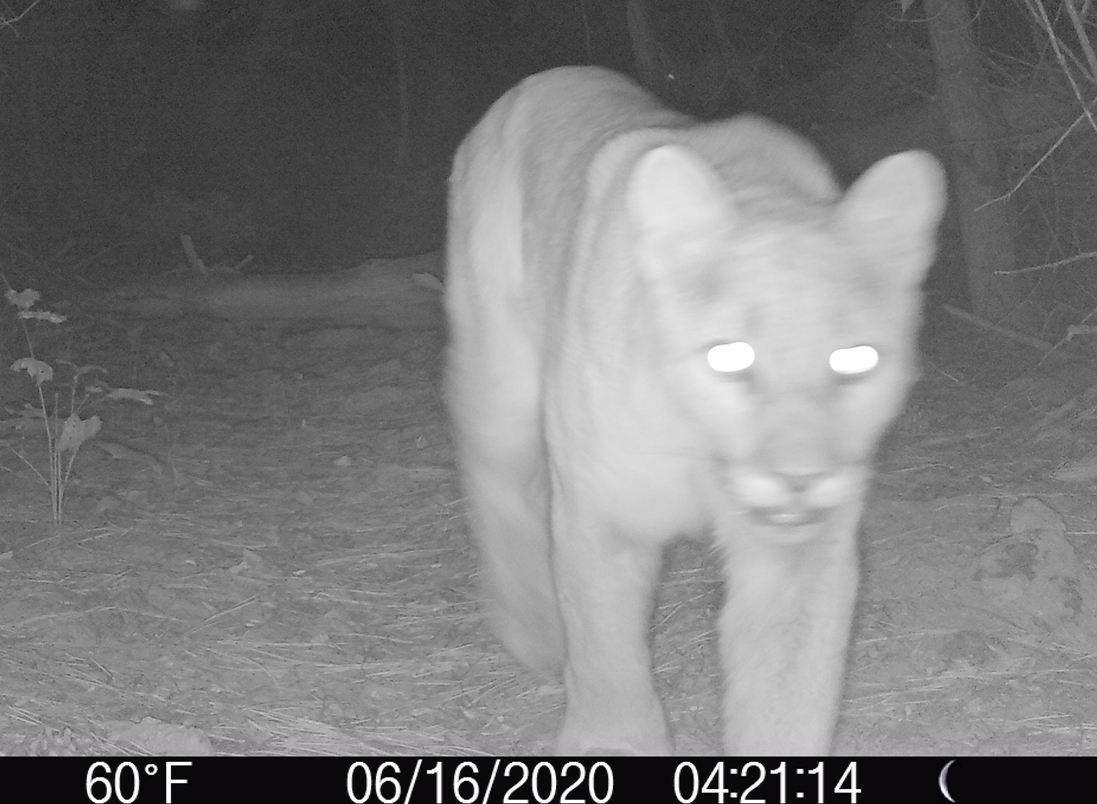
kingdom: Animalia
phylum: Chordata
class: Mammalia
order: Carnivora
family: Felidae
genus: Puma
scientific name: Puma concolor
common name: Puma
